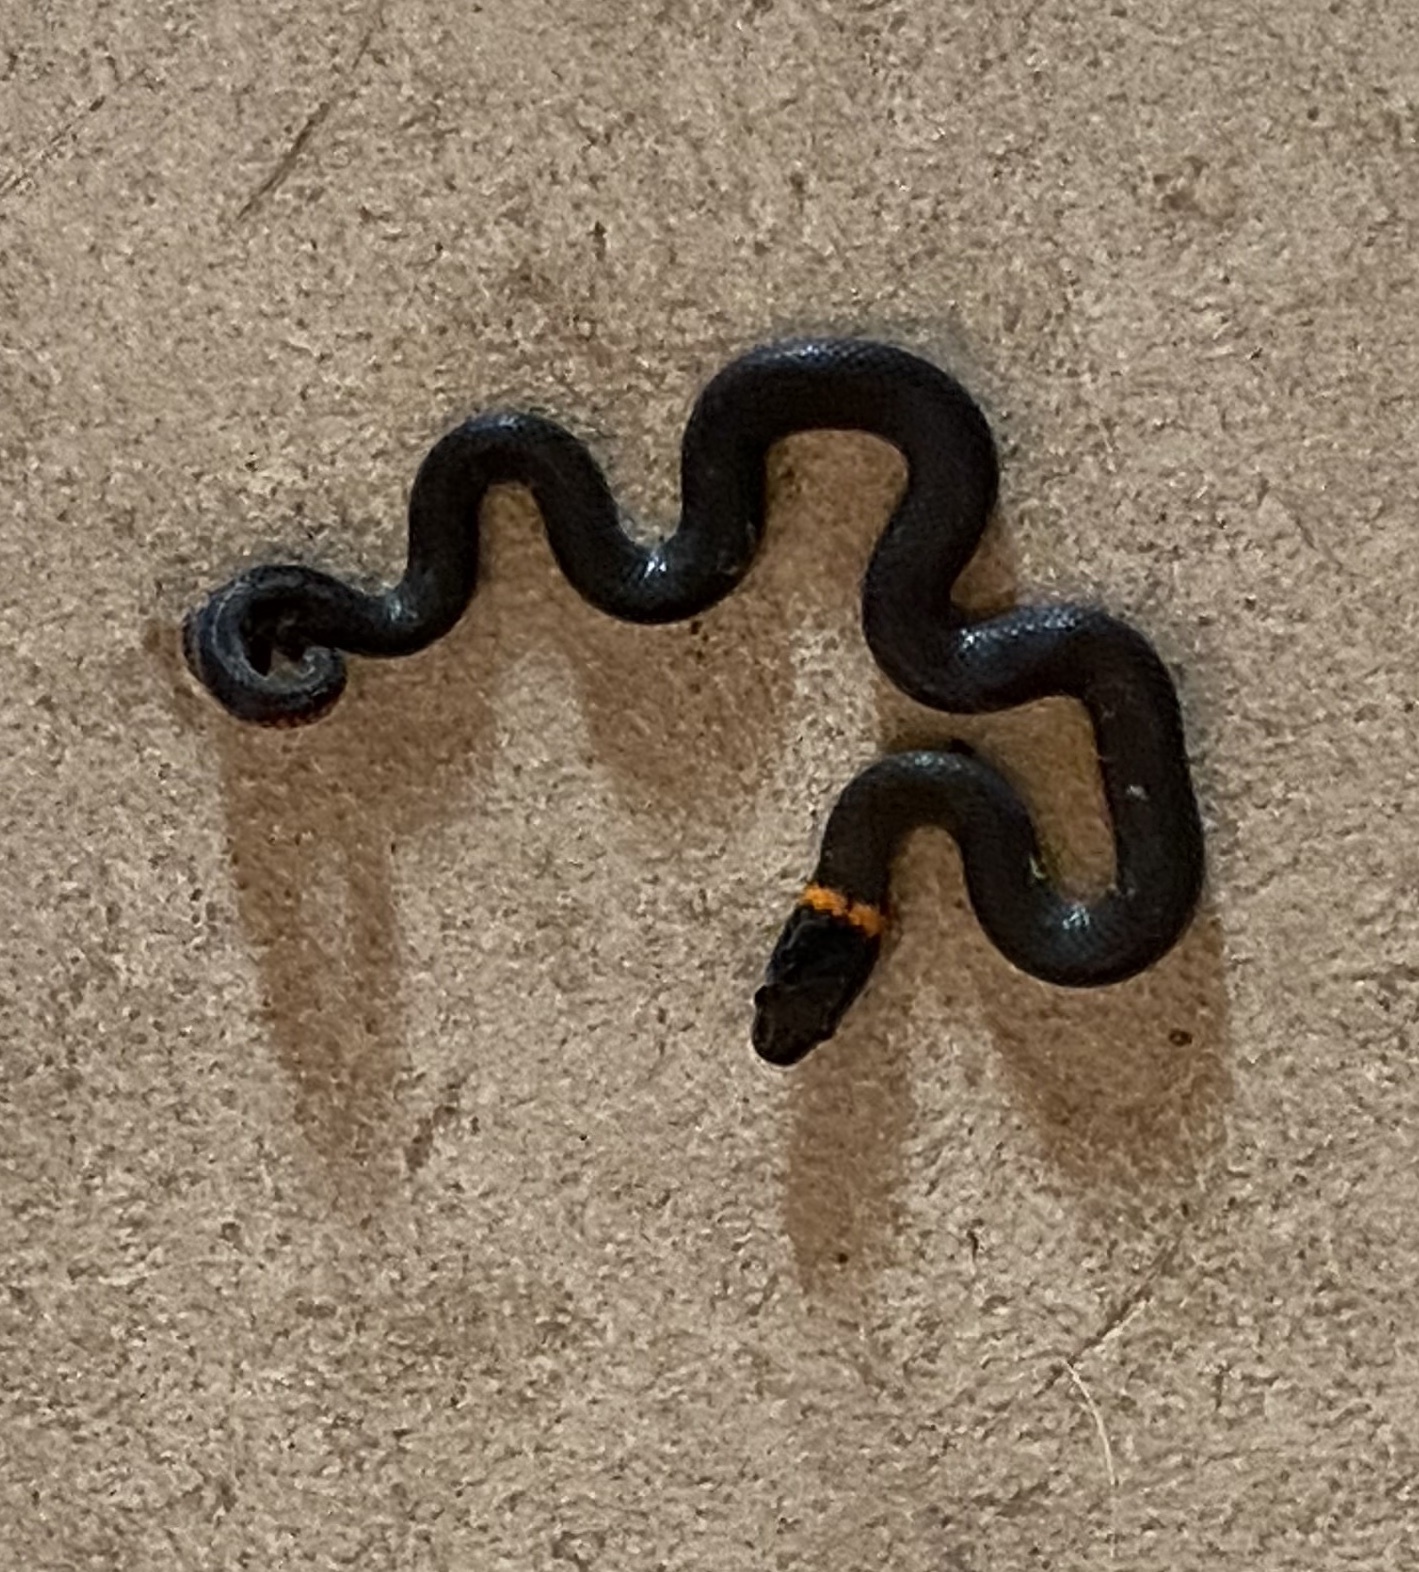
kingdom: Animalia
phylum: Chordata
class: Squamata
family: Colubridae
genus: Diadophis
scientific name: Diadophis punctatus
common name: Ringneck snake
